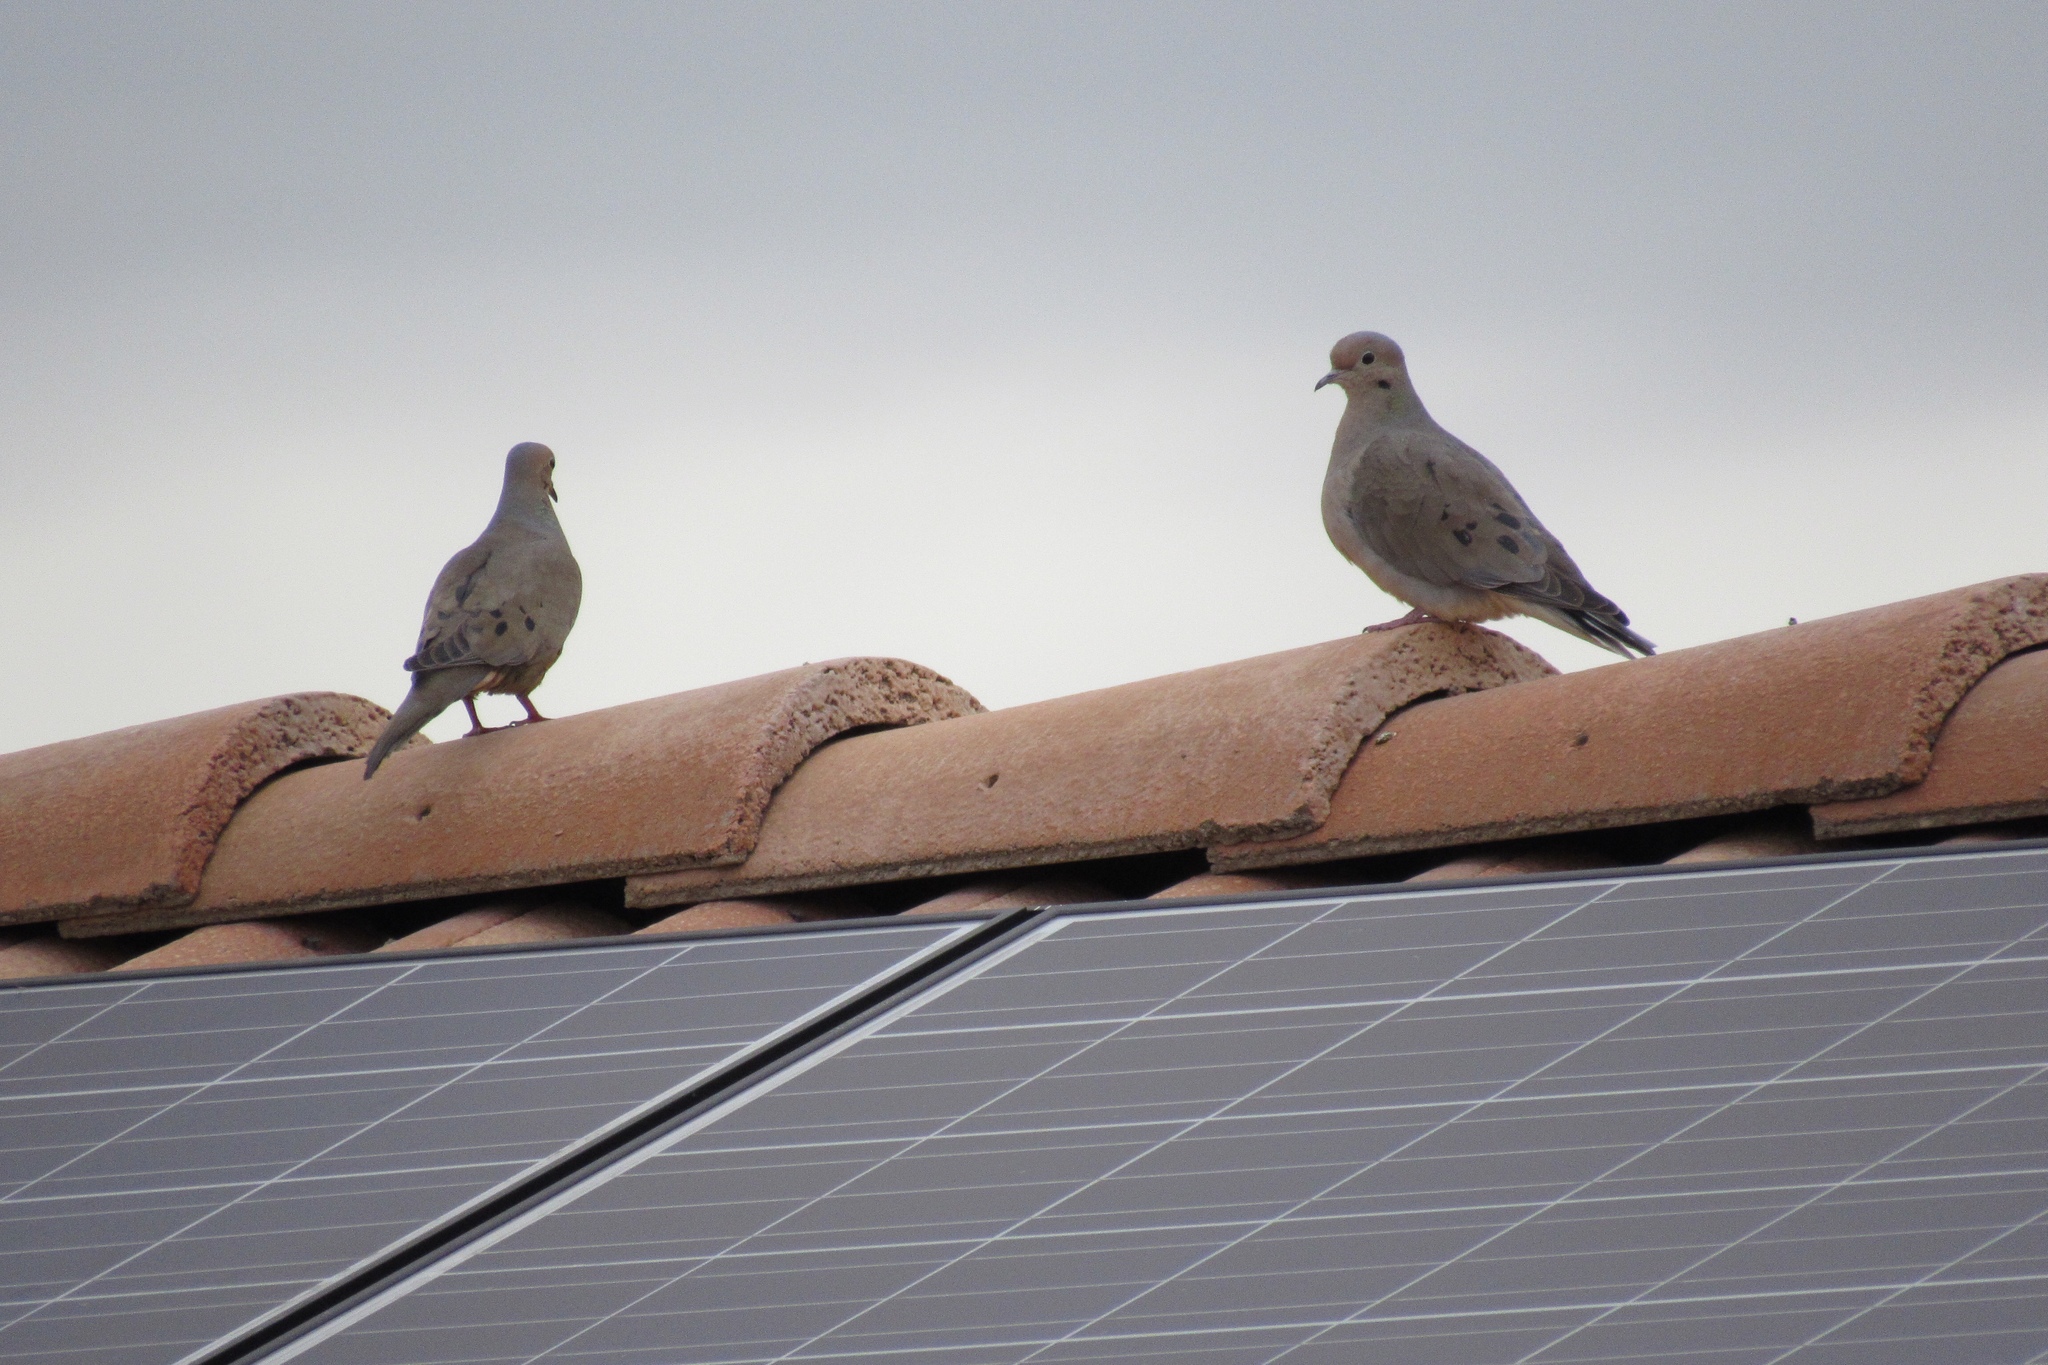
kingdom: Animalia
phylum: Chordata
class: Aves
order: Columbiformes
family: Columbidae
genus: Zenaida
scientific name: Zenaida macroura
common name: Mourning dove
